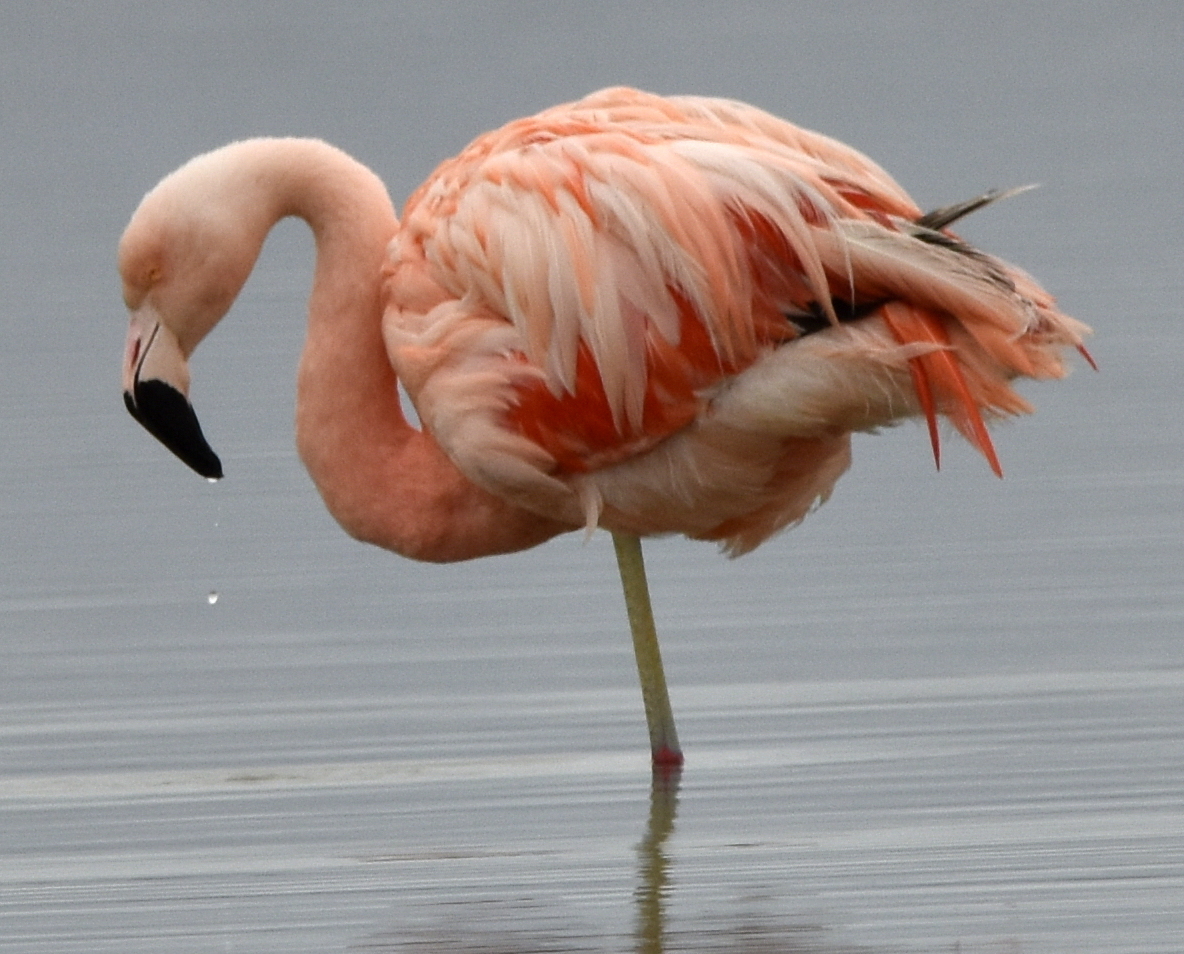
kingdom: Animalia
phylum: Chordata
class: Aves
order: Phoenicopteriformes
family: Phoenicopteridae
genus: Phoenicopterus
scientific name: Phoenicopterus chilensis
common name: Chilean flamingo
